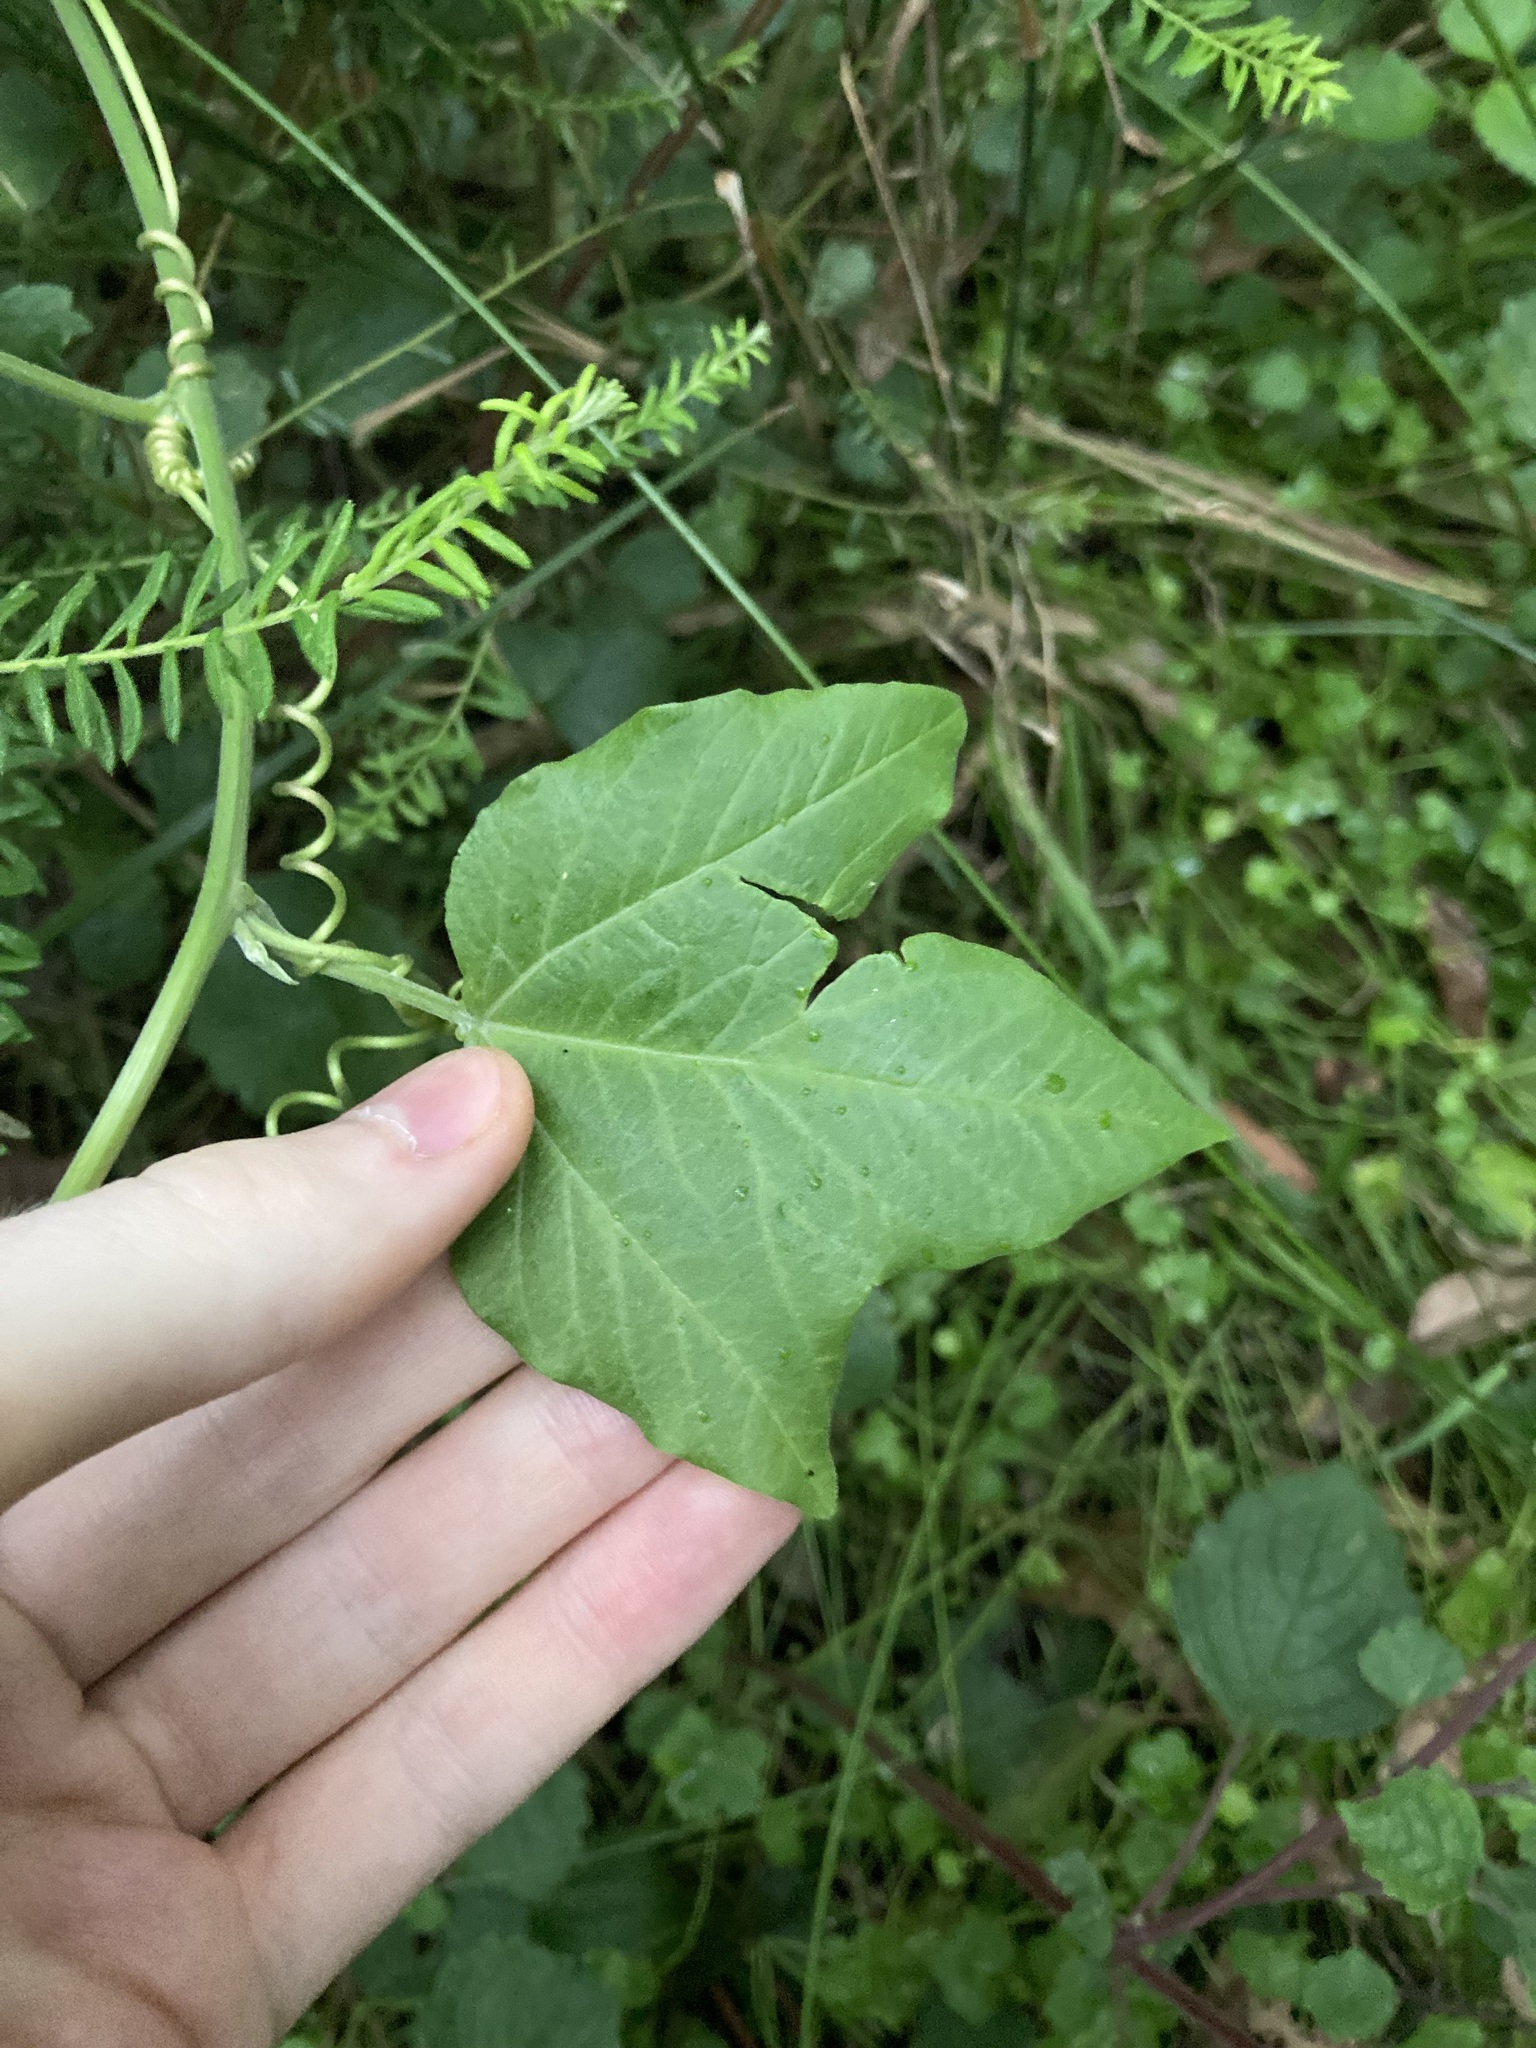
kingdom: Plantae
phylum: Tracheophyta
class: Magnoliopsida
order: Malpighiales
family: Passifloraceae
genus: Passiflora
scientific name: Passiflora herbertiana
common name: Yellow passionflower
